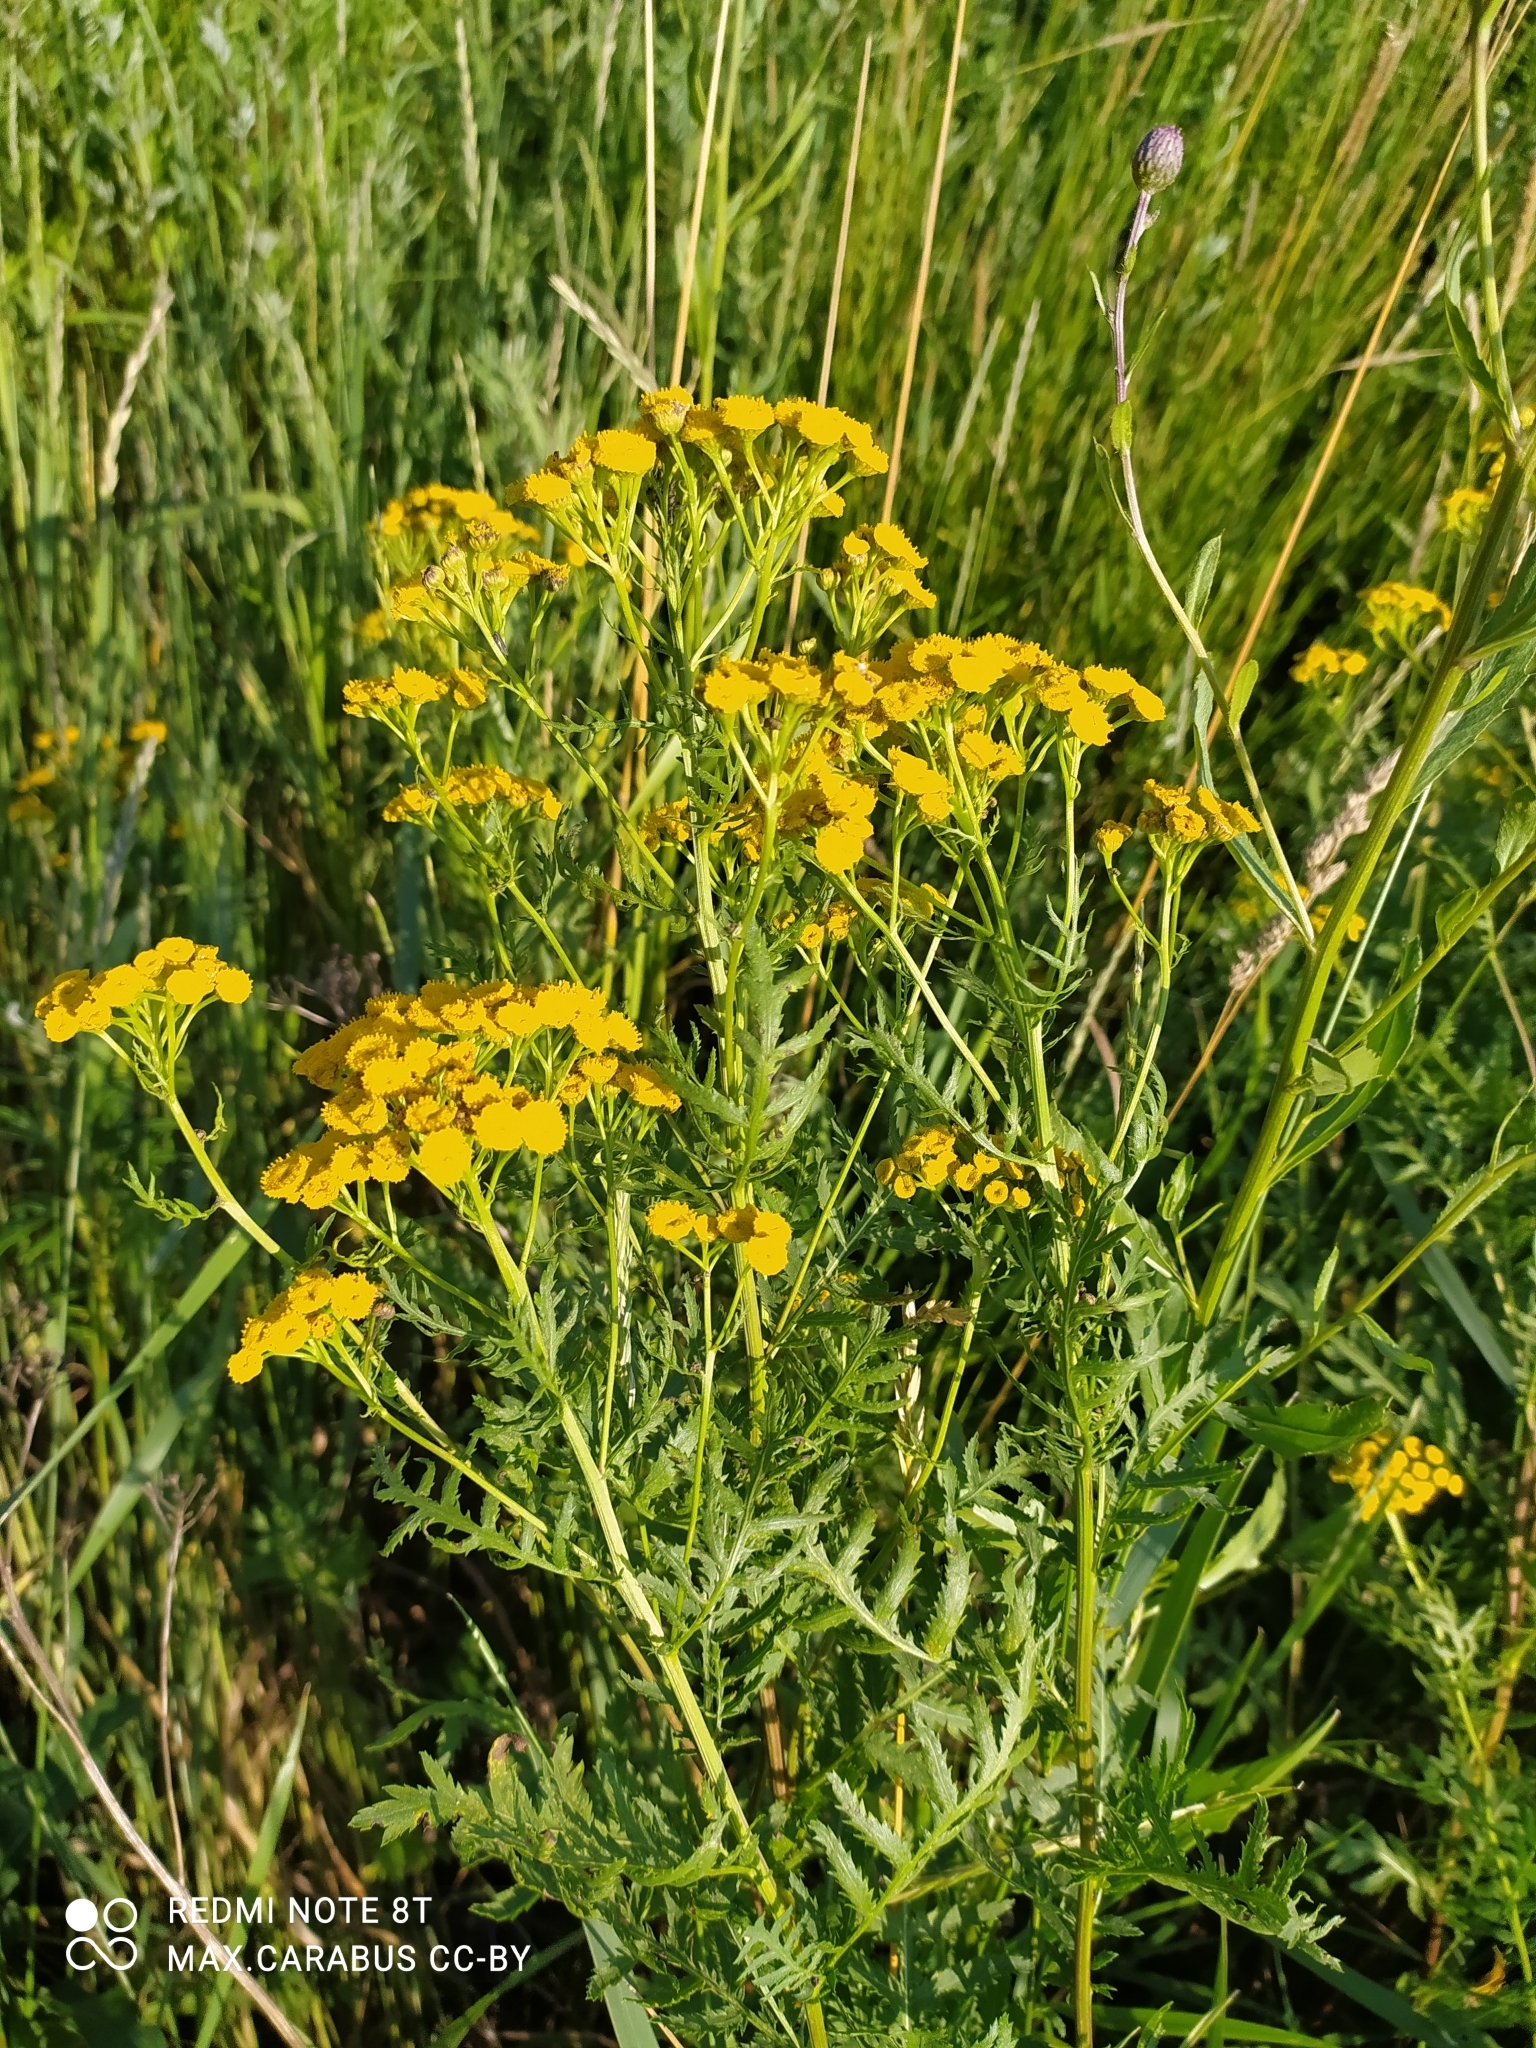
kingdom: Plantae
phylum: Tracheophyta
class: Magnoliopsida
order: Asterales
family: Asteraceae
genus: Tanacetum
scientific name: Tanacetum vulgare
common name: Common tansy
